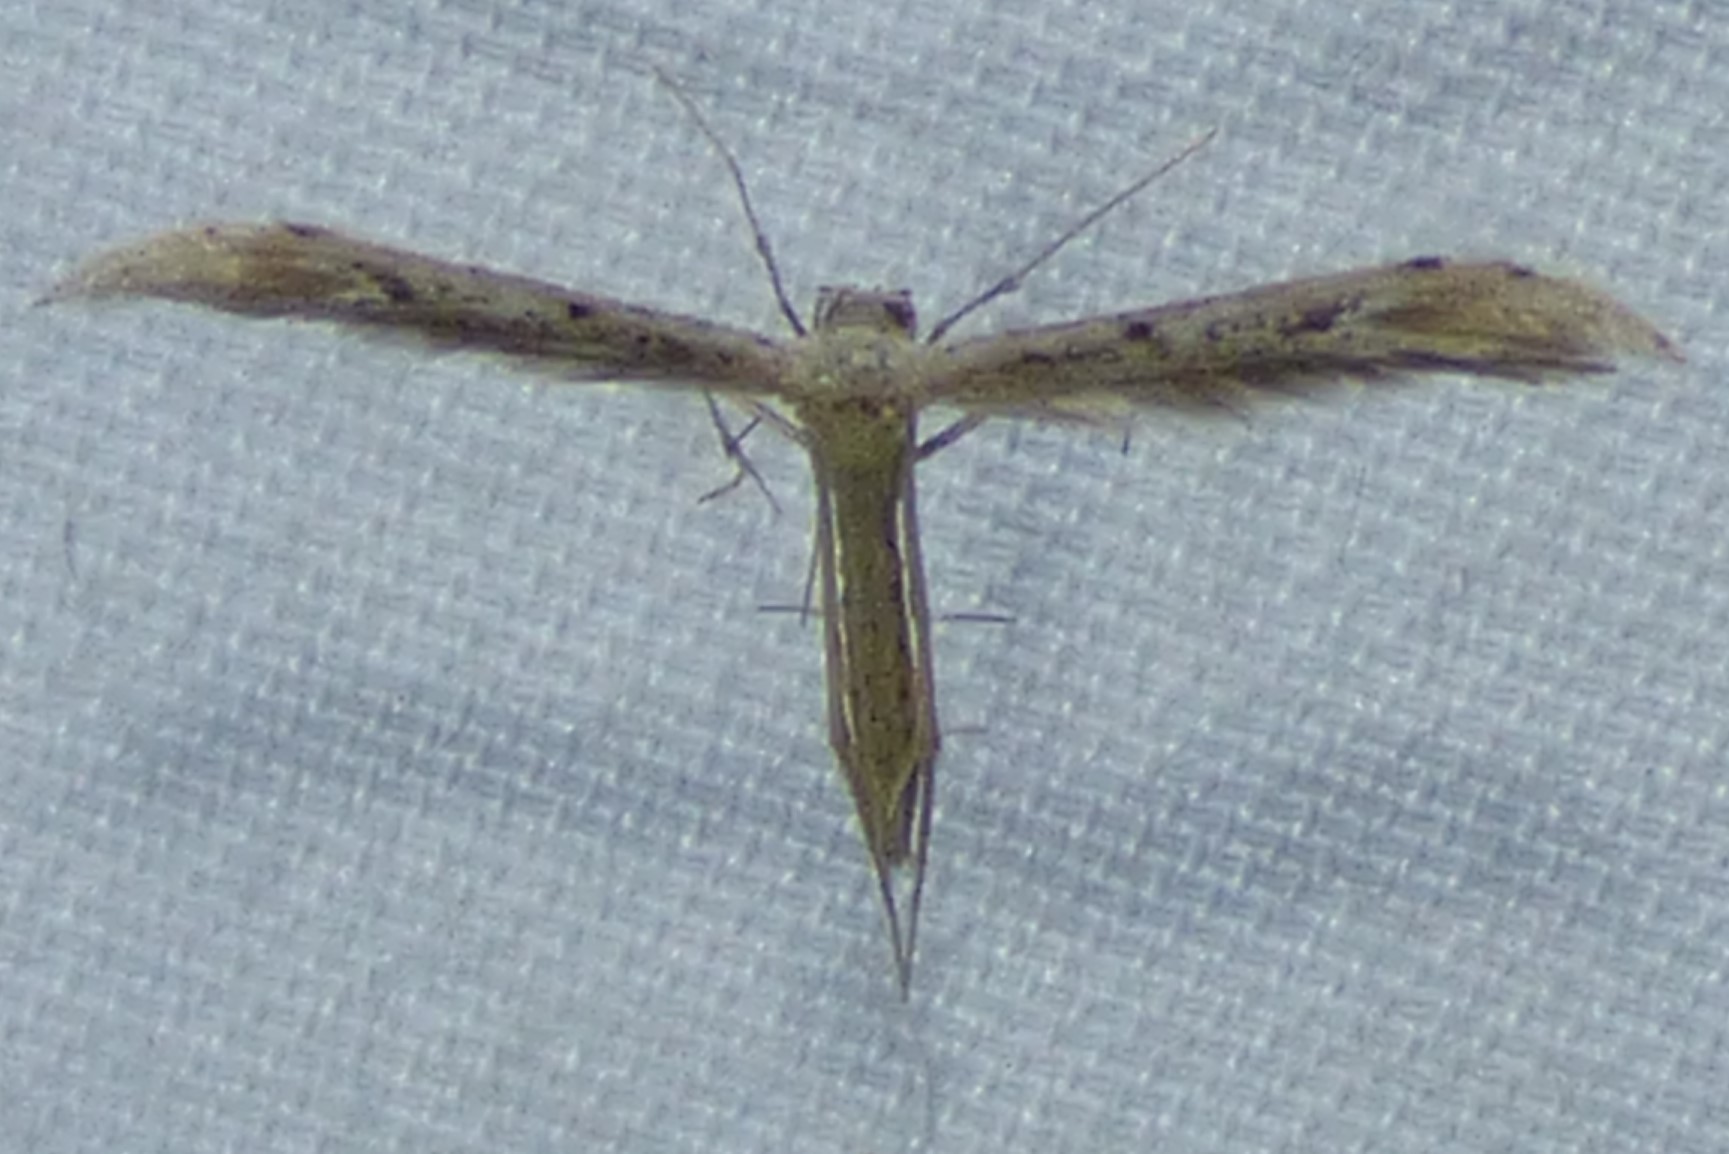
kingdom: Animalia
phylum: Arthropoda
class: Insecta
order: Lepidoptera
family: Pterophoridae
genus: Pselnophorus
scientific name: Pselnophorus belfragei
